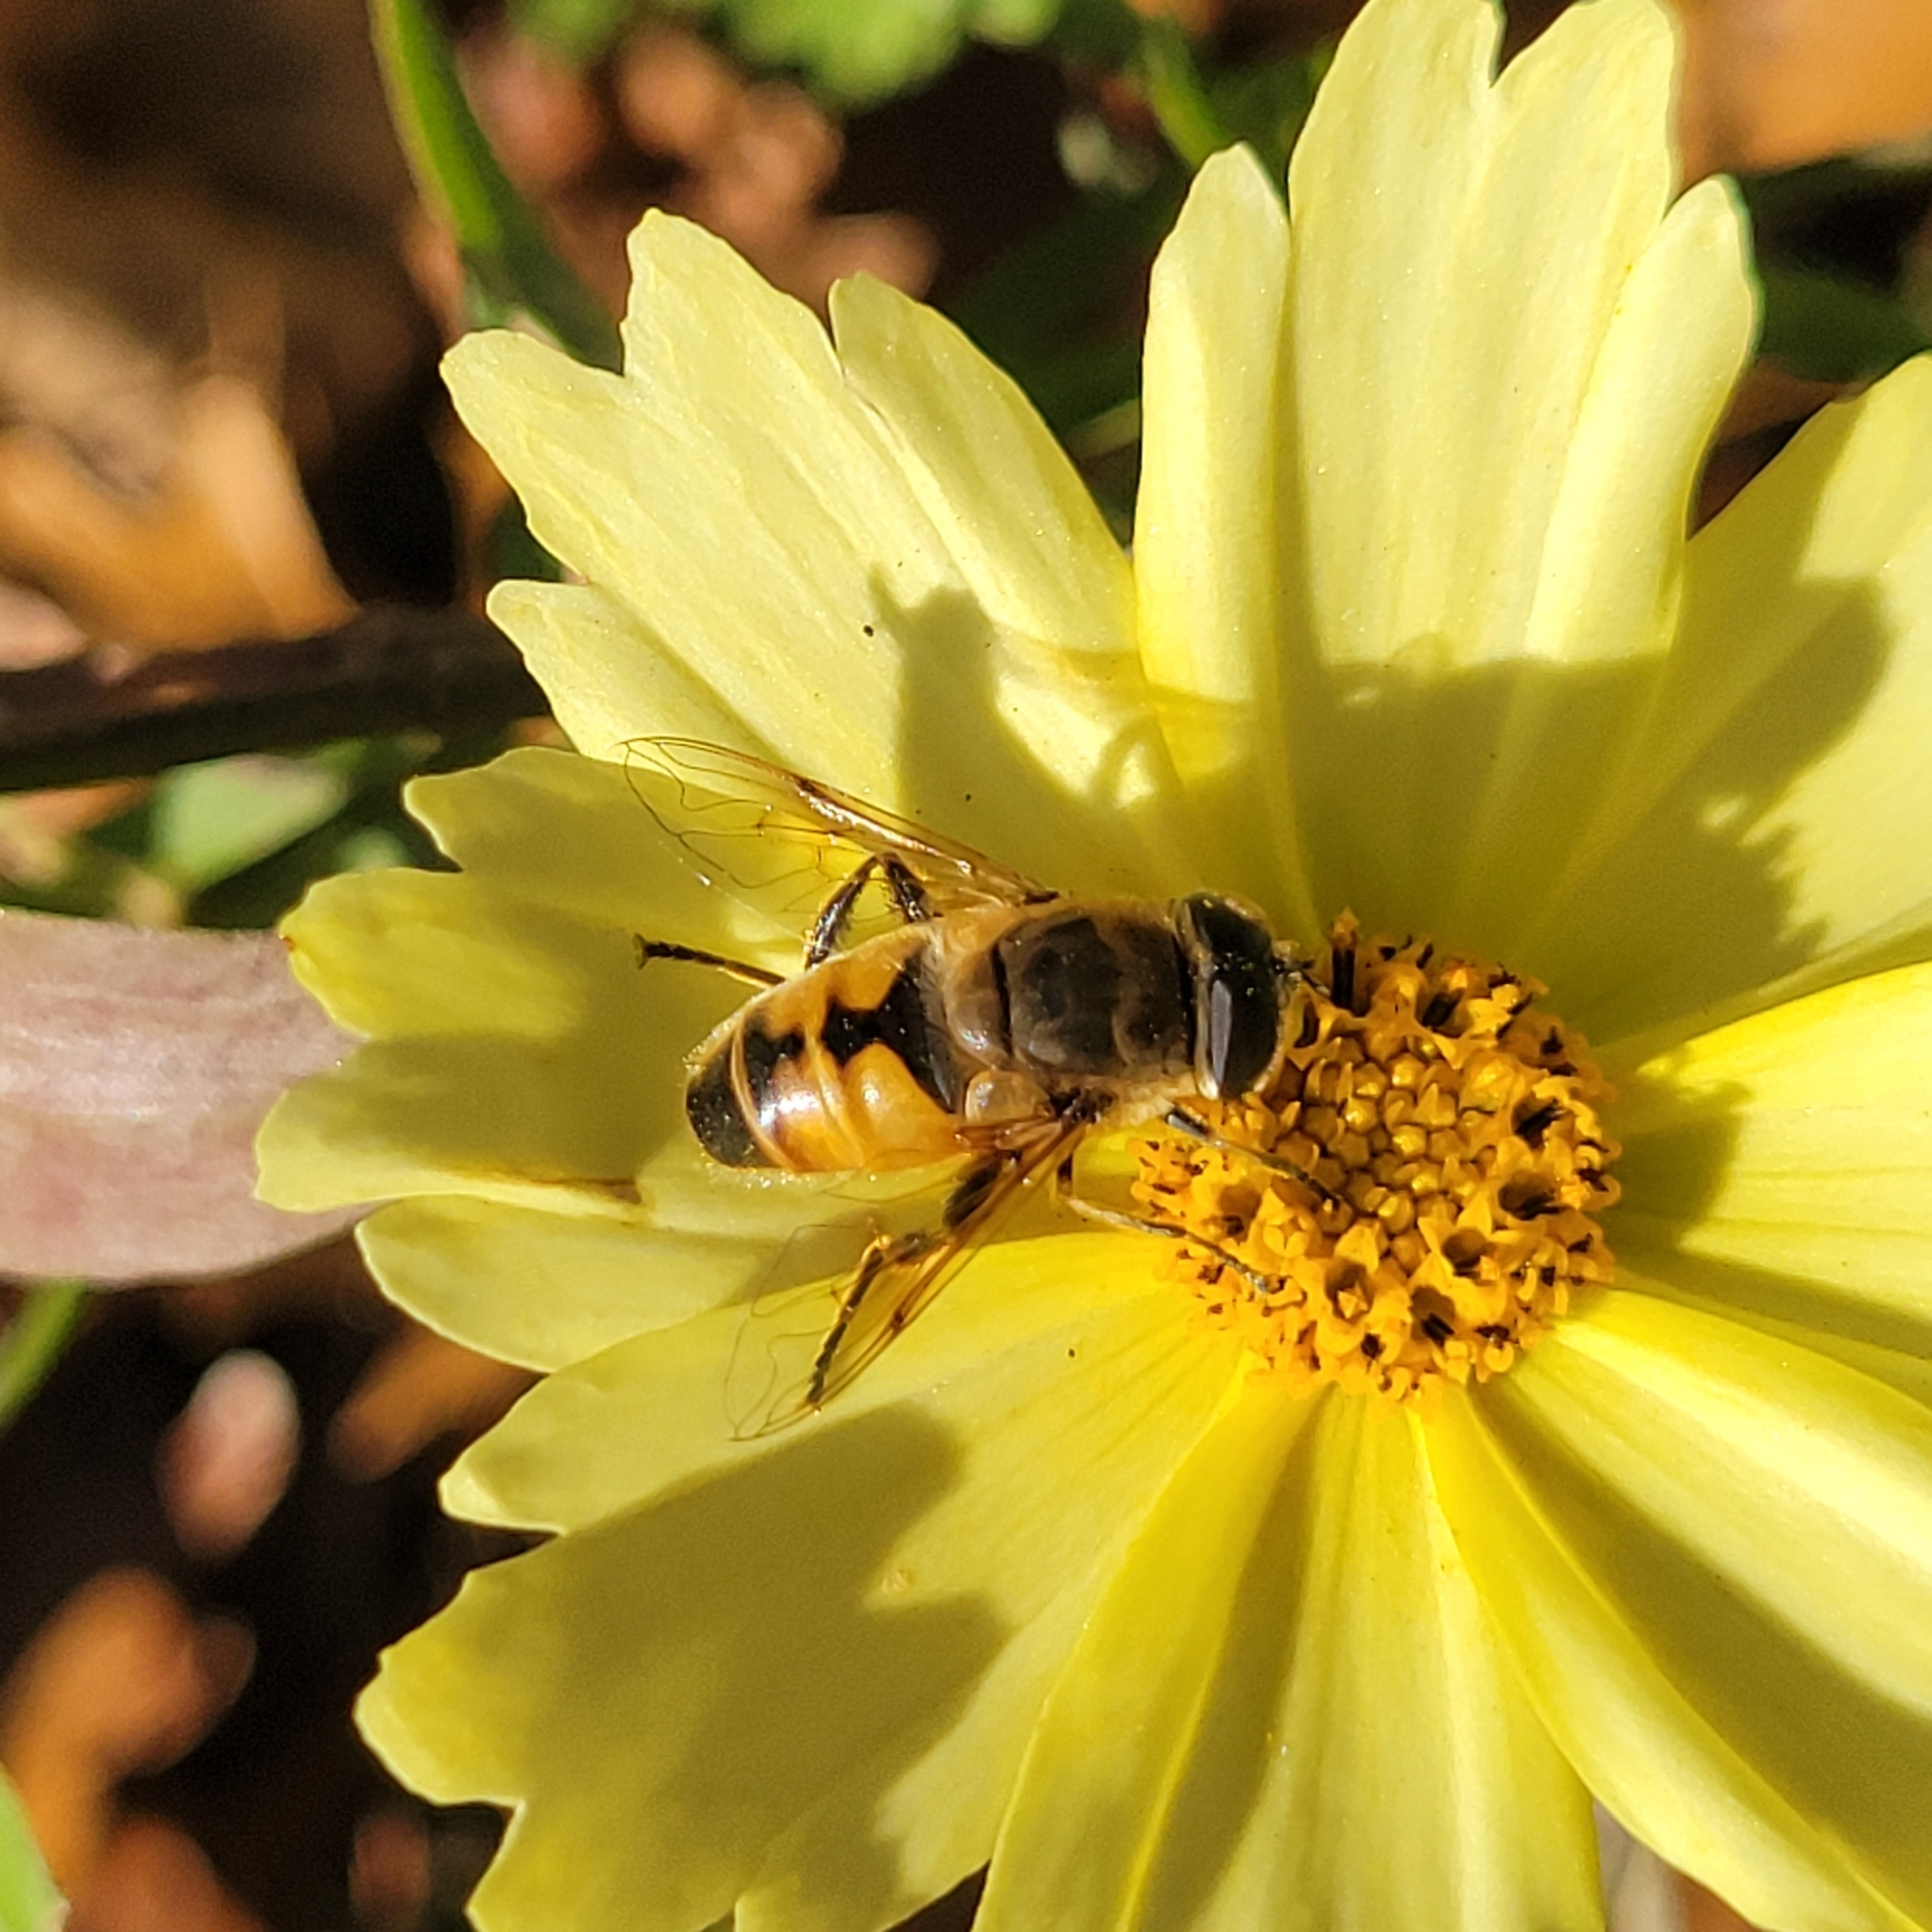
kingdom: Animalia
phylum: Arthropoda
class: Insecta
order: Diptera
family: Syrphidae
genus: Eristalis
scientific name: Eristalis tenax
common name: Drone fly
